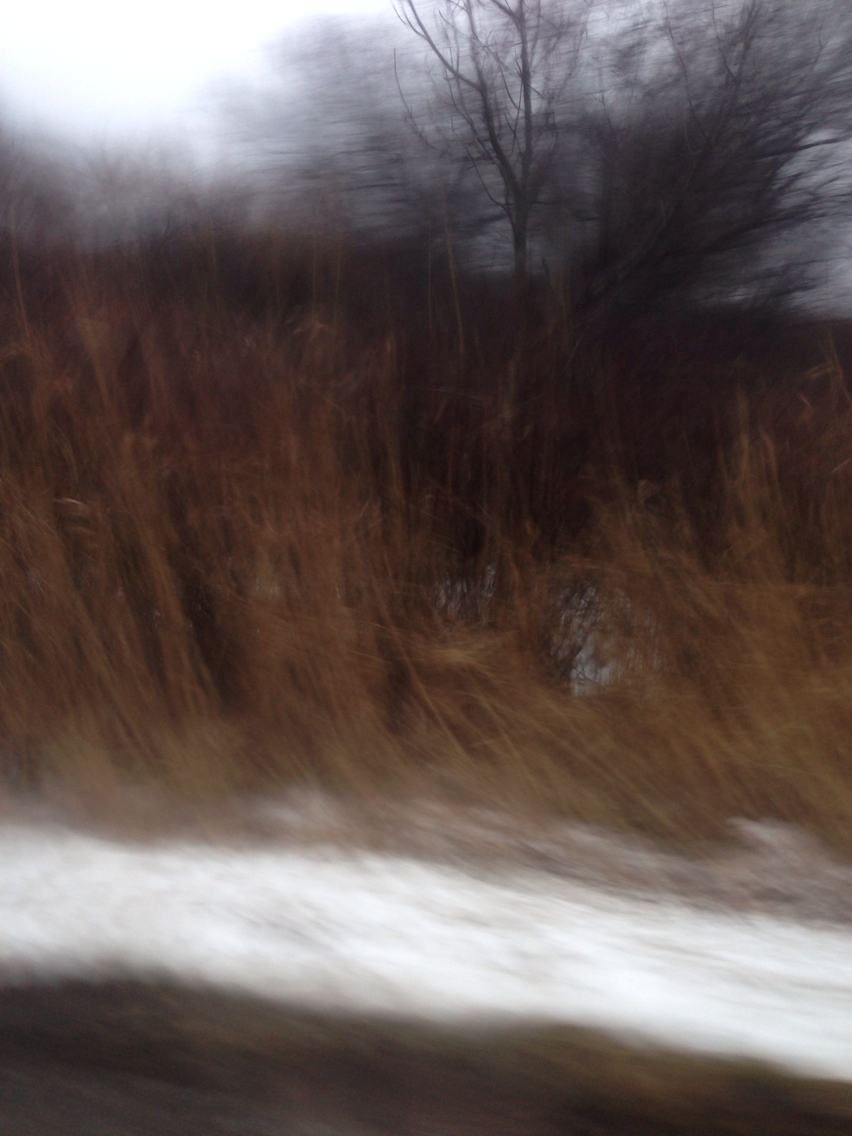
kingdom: Plantae
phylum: Tracheophyta
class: Liliopsida
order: Poales
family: Poaceae
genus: Phragmites
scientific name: Phragmites australis
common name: Common reed
